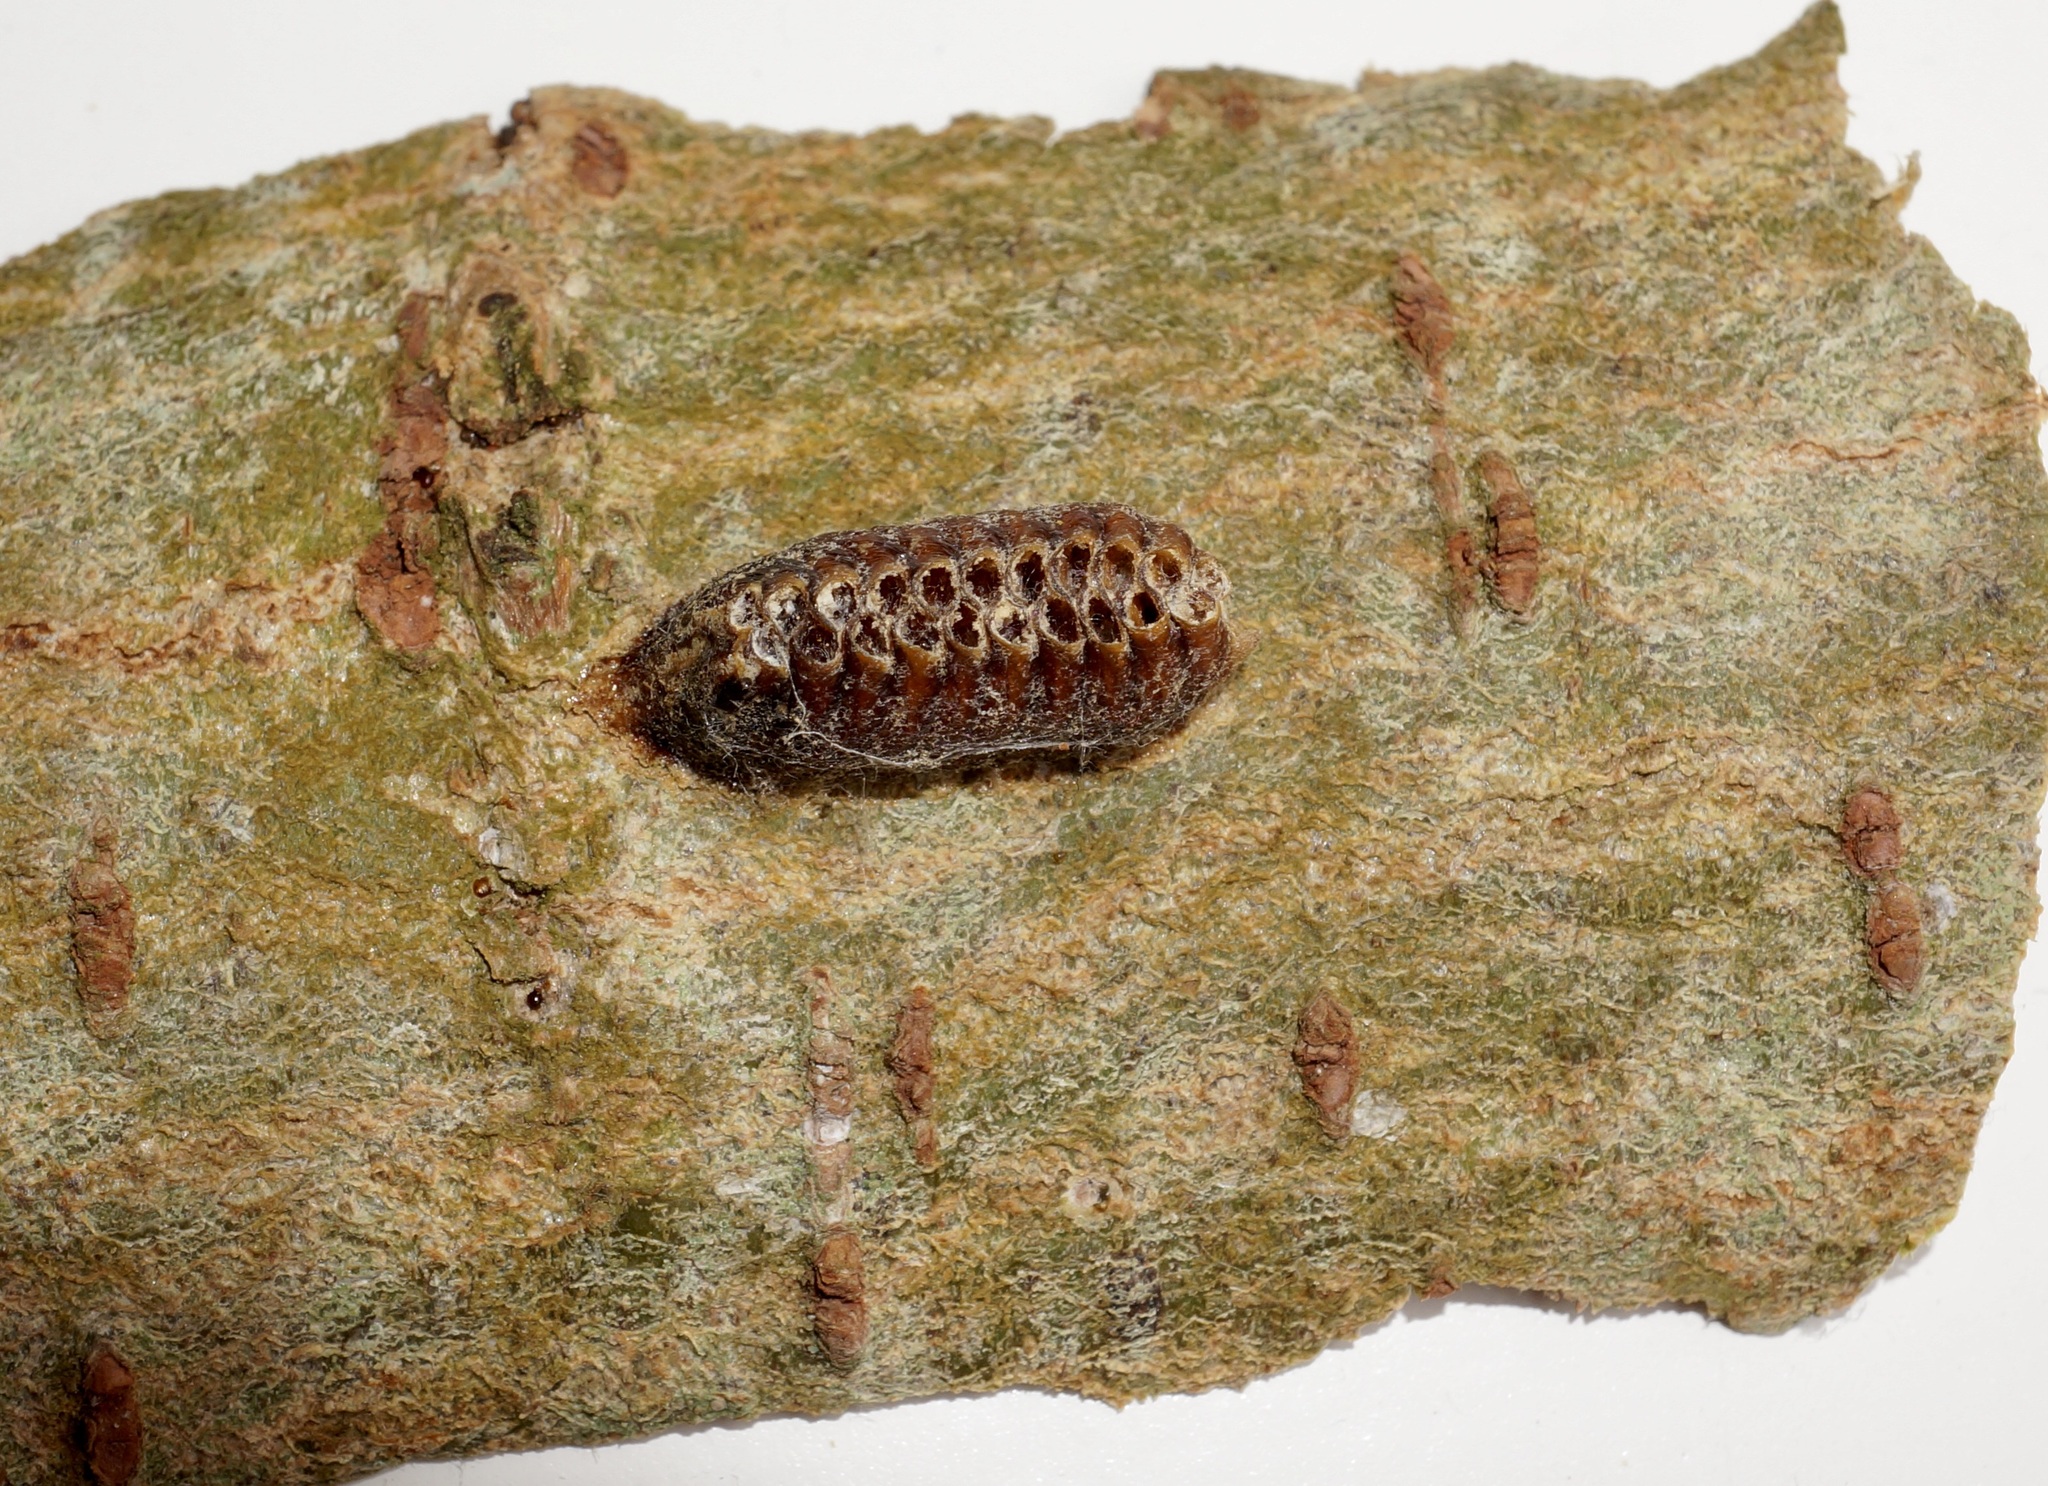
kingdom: Animalia
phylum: Arthropoda
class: Insecta
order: Mantodea
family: Mantidae
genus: Orthodera
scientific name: Orthodera novaezealandiae
